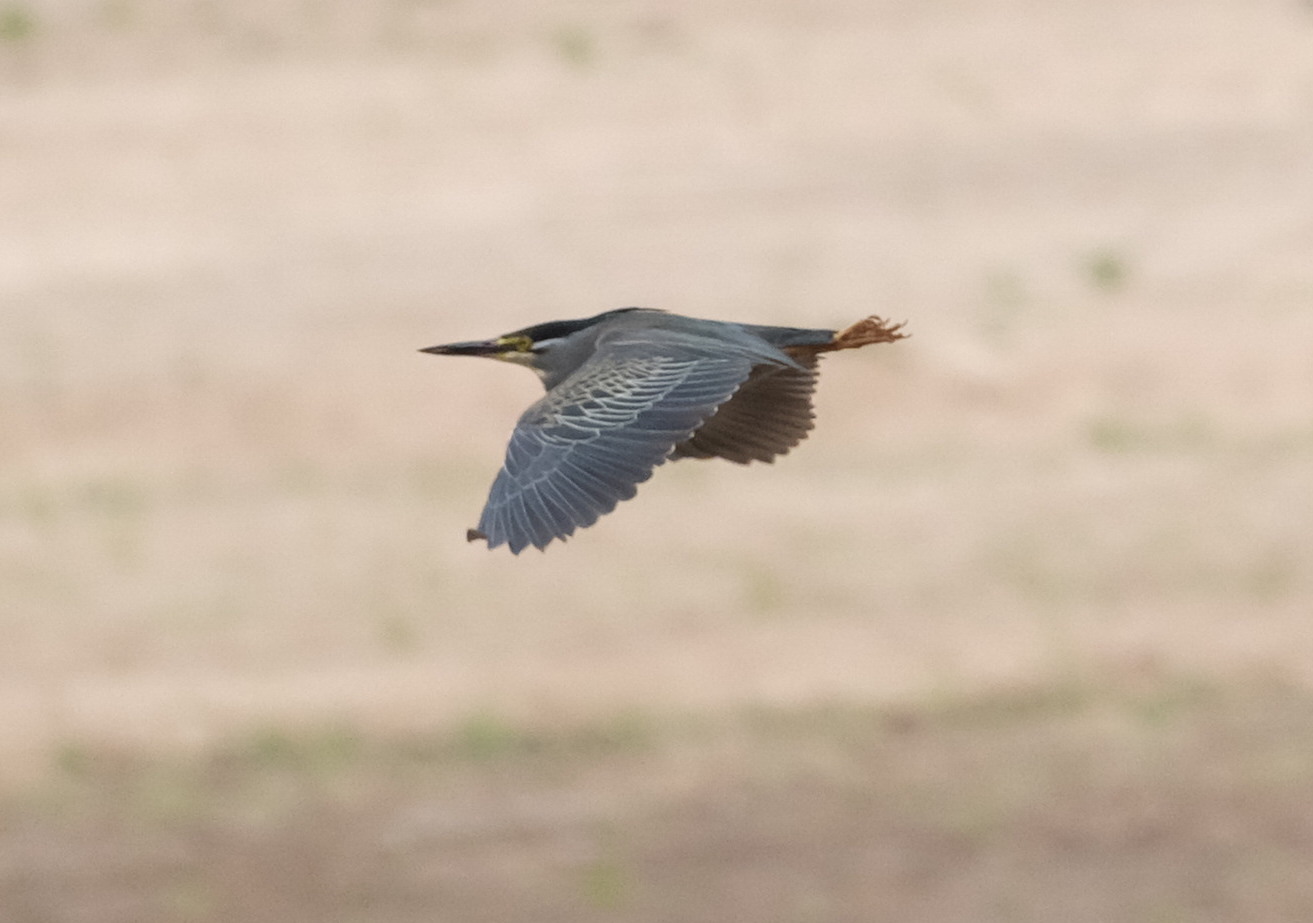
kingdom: Animalia
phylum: Chordata
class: Aves
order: Pelecaniformes
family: Ardeidae
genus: Butorides
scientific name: Butorides striata
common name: Striated heron
